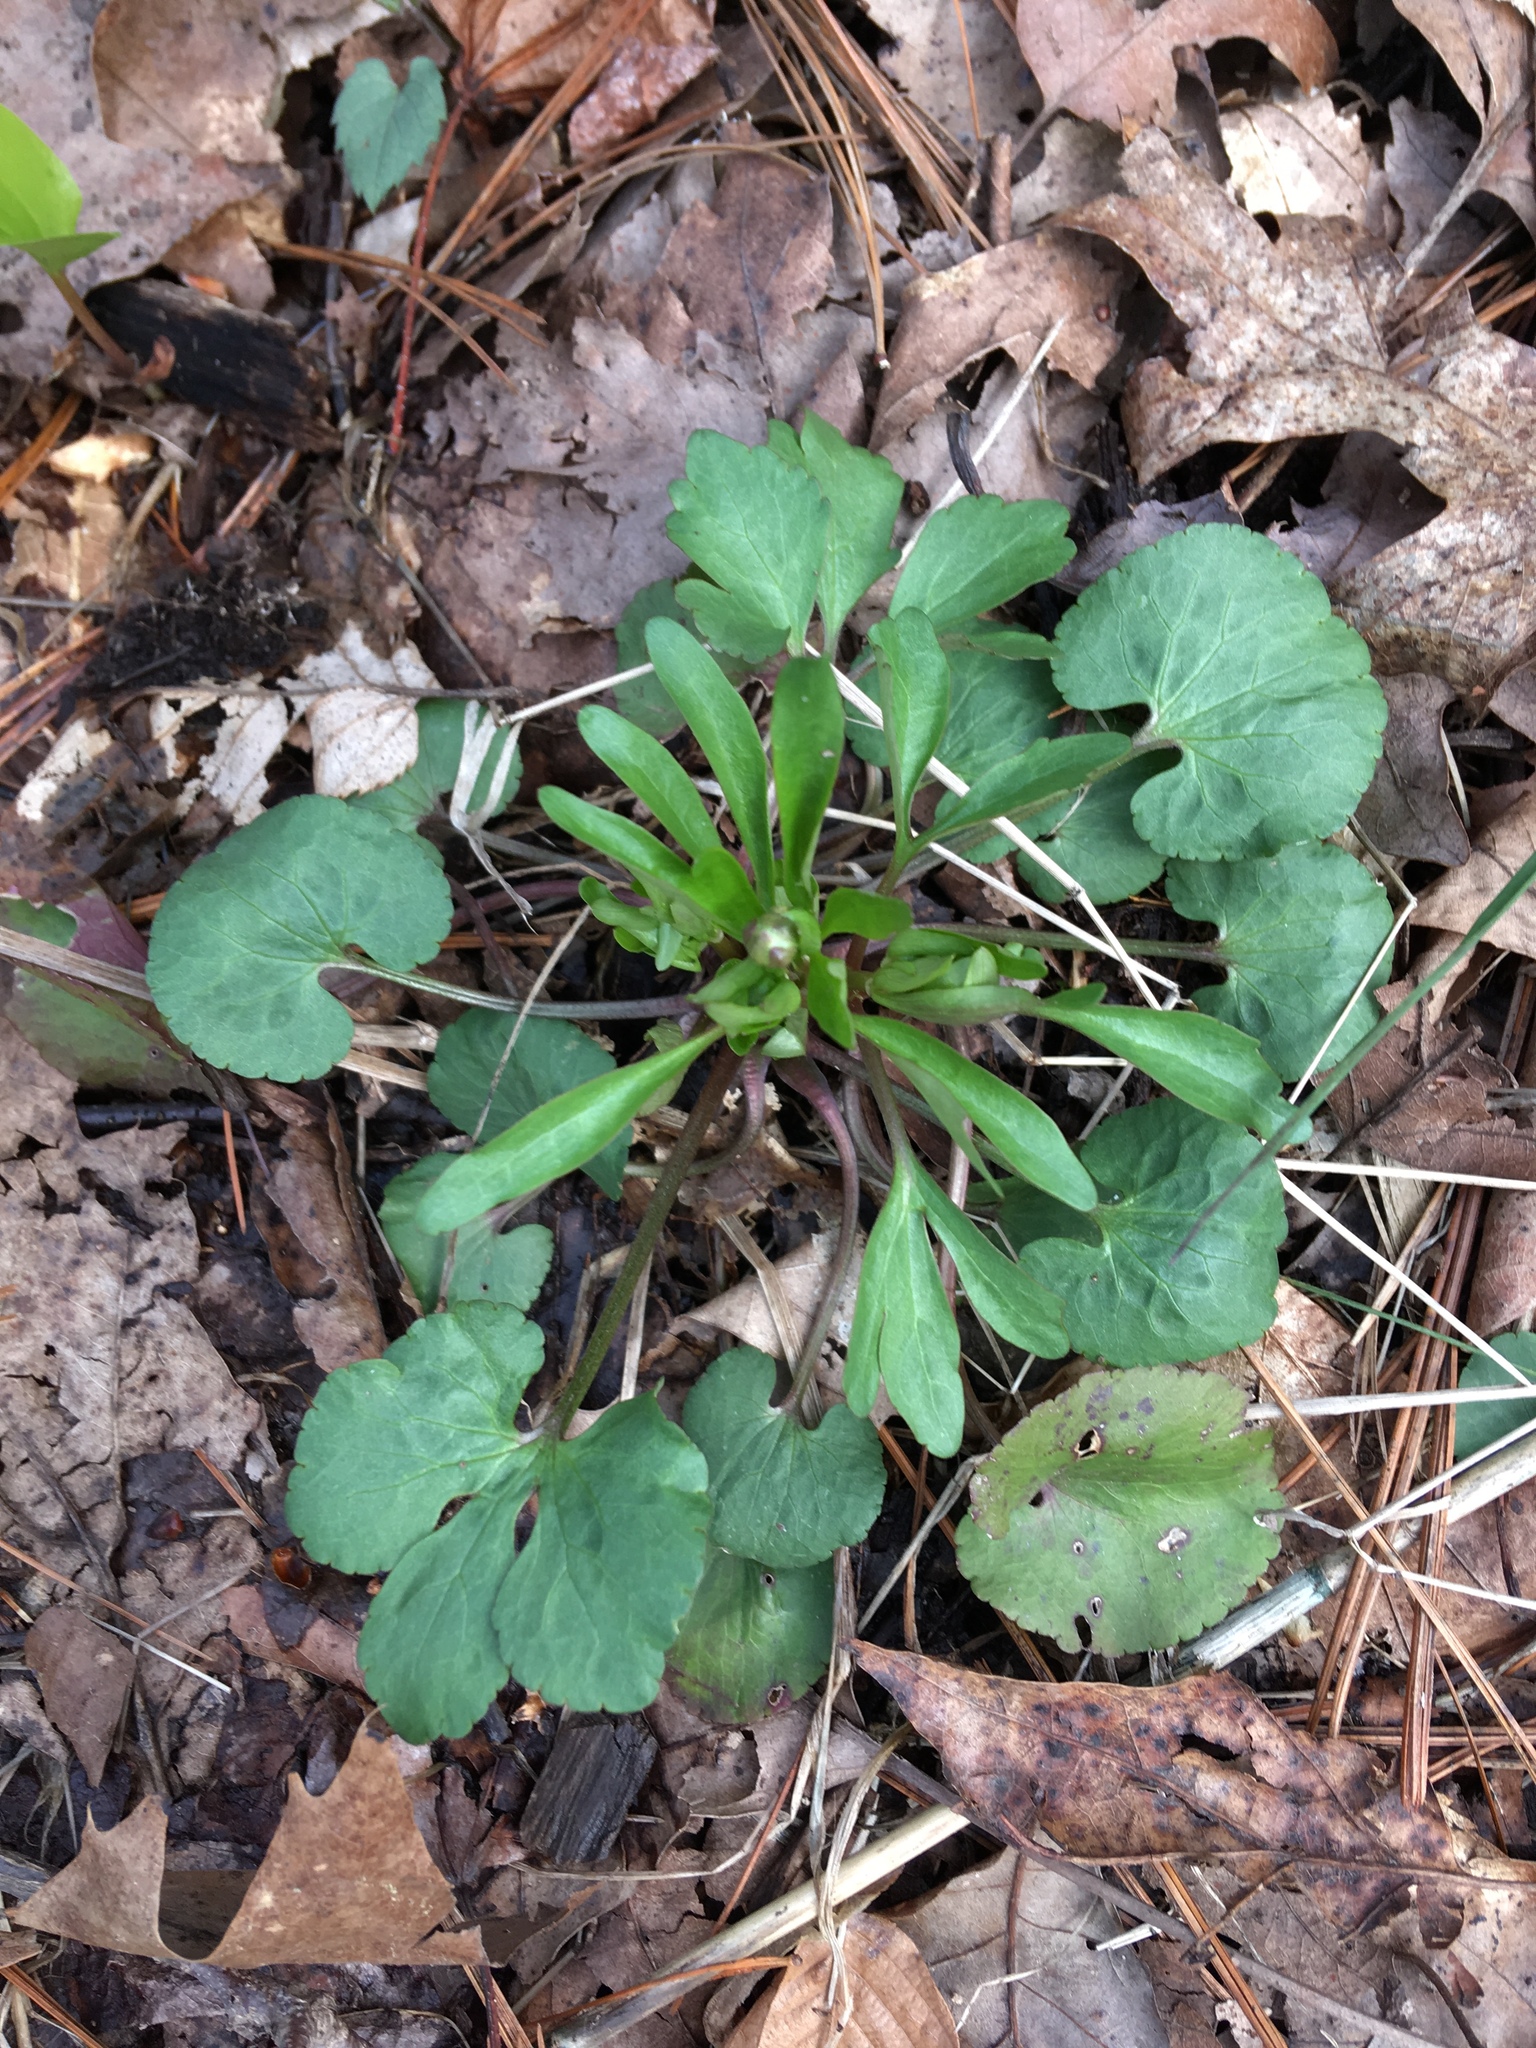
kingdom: Plantae
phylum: Tracheophyta
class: Magnoliopsida
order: Ranunculales
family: Ranunculaceae
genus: Ranunculus
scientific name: Ranunculus abortivus
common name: Early wood buttercup
